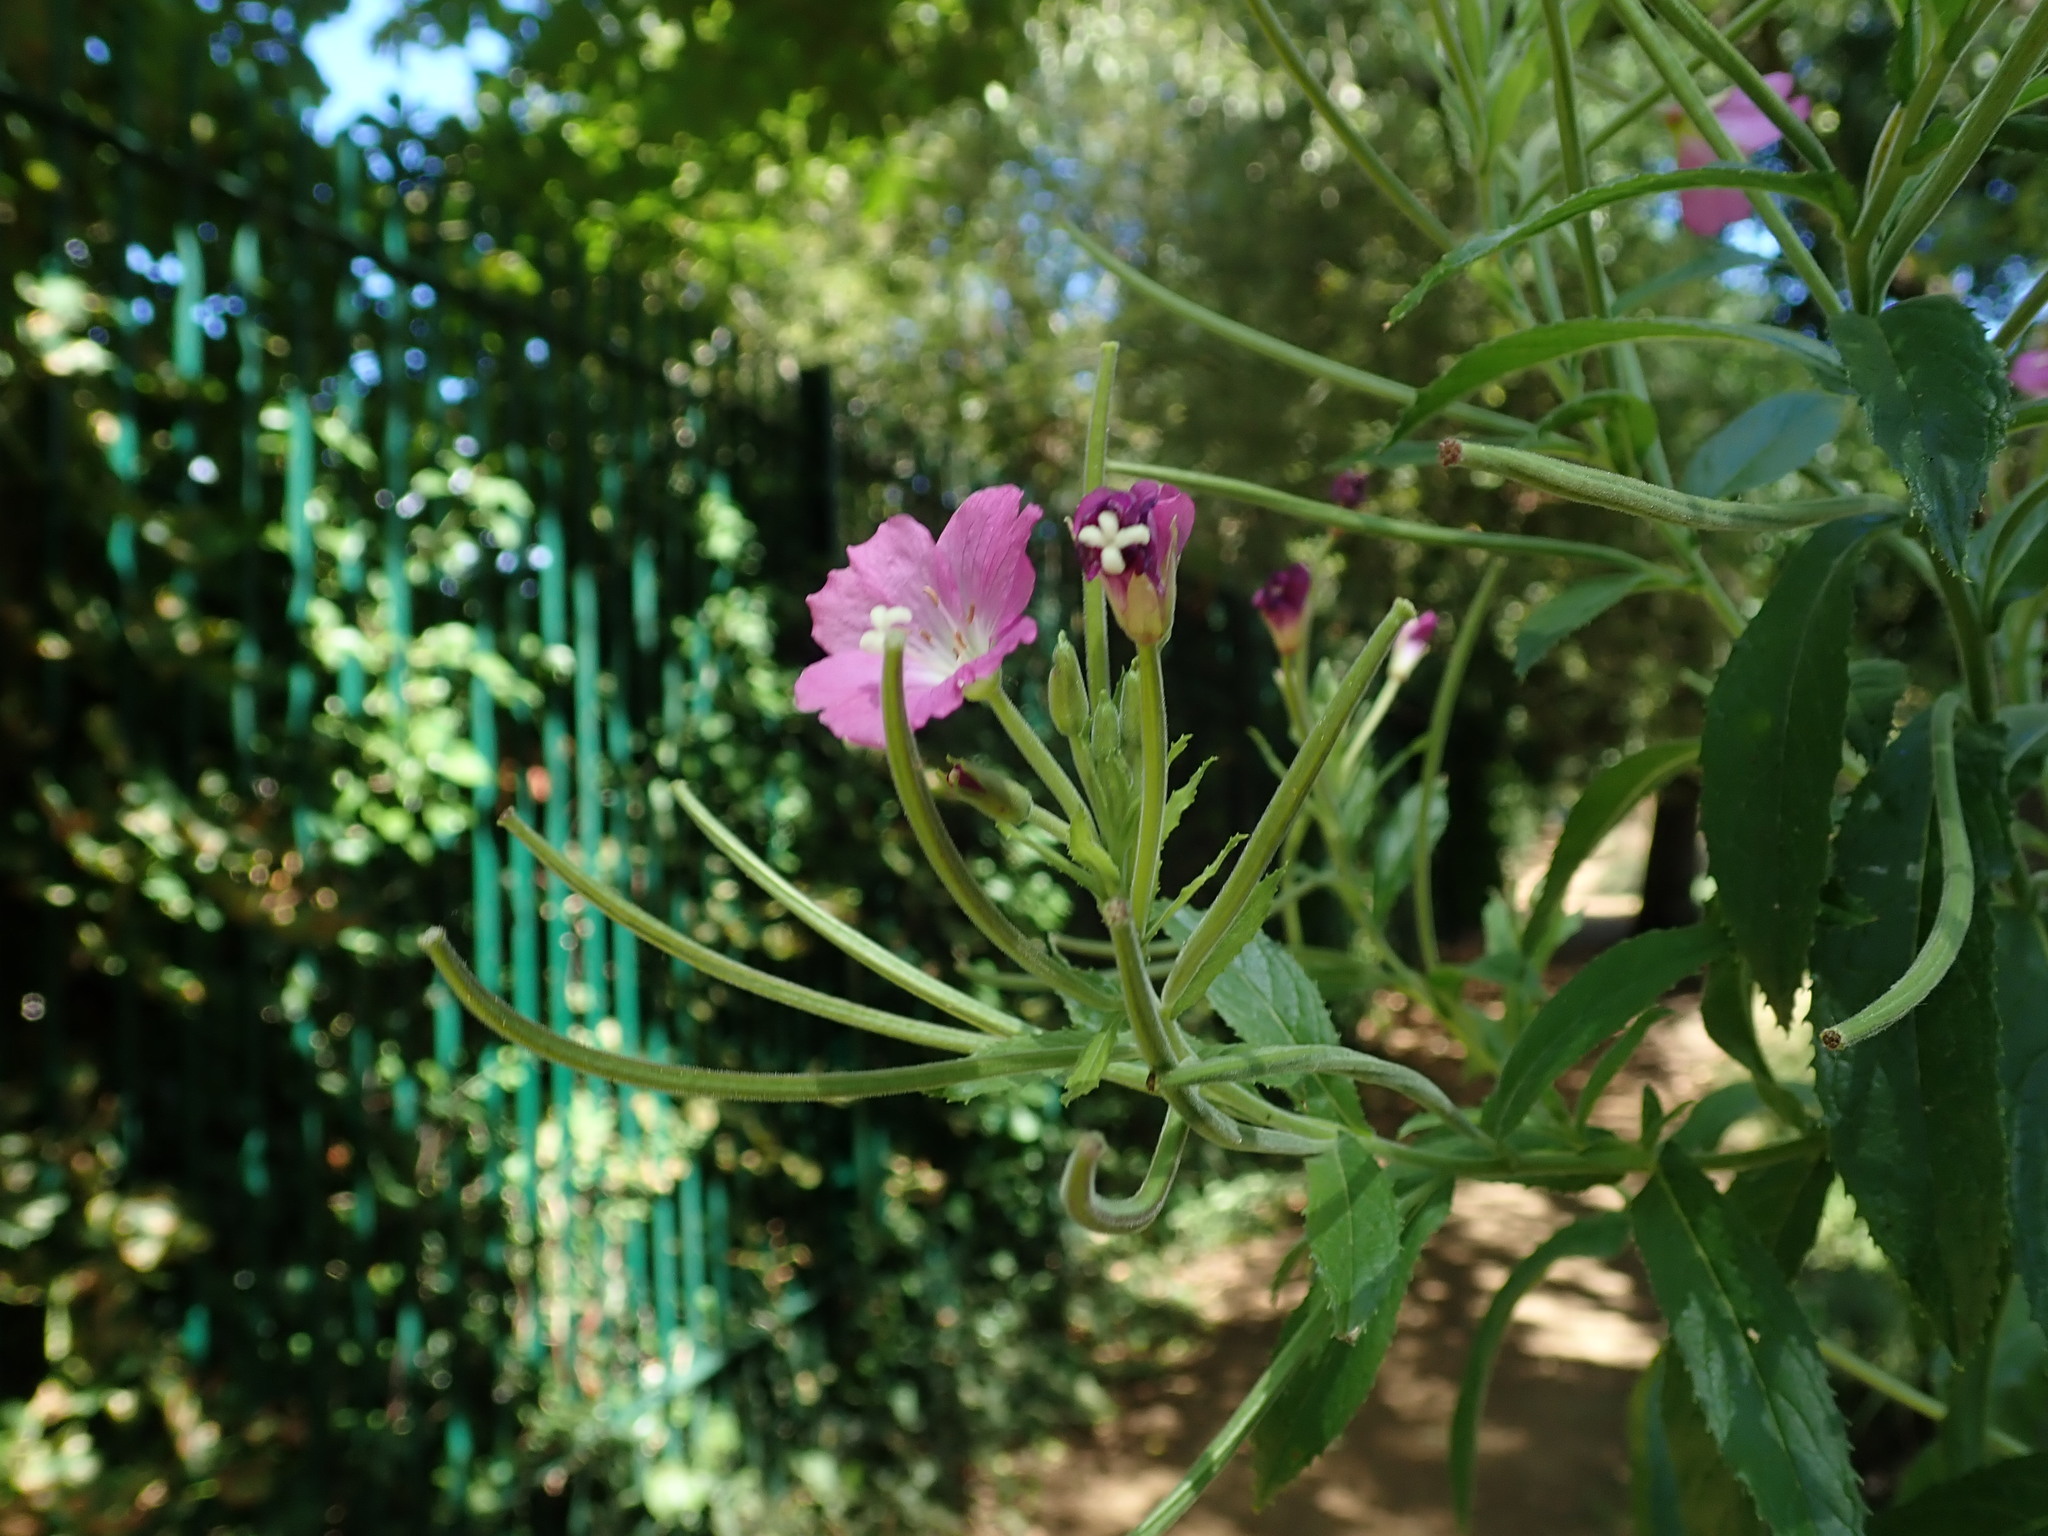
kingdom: Plantae
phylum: Tracheophyta
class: Magnoliopsida
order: Myrtales
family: Onagraceae
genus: Epilobium
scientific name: Epilobium hirsutum
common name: Great willowherb
